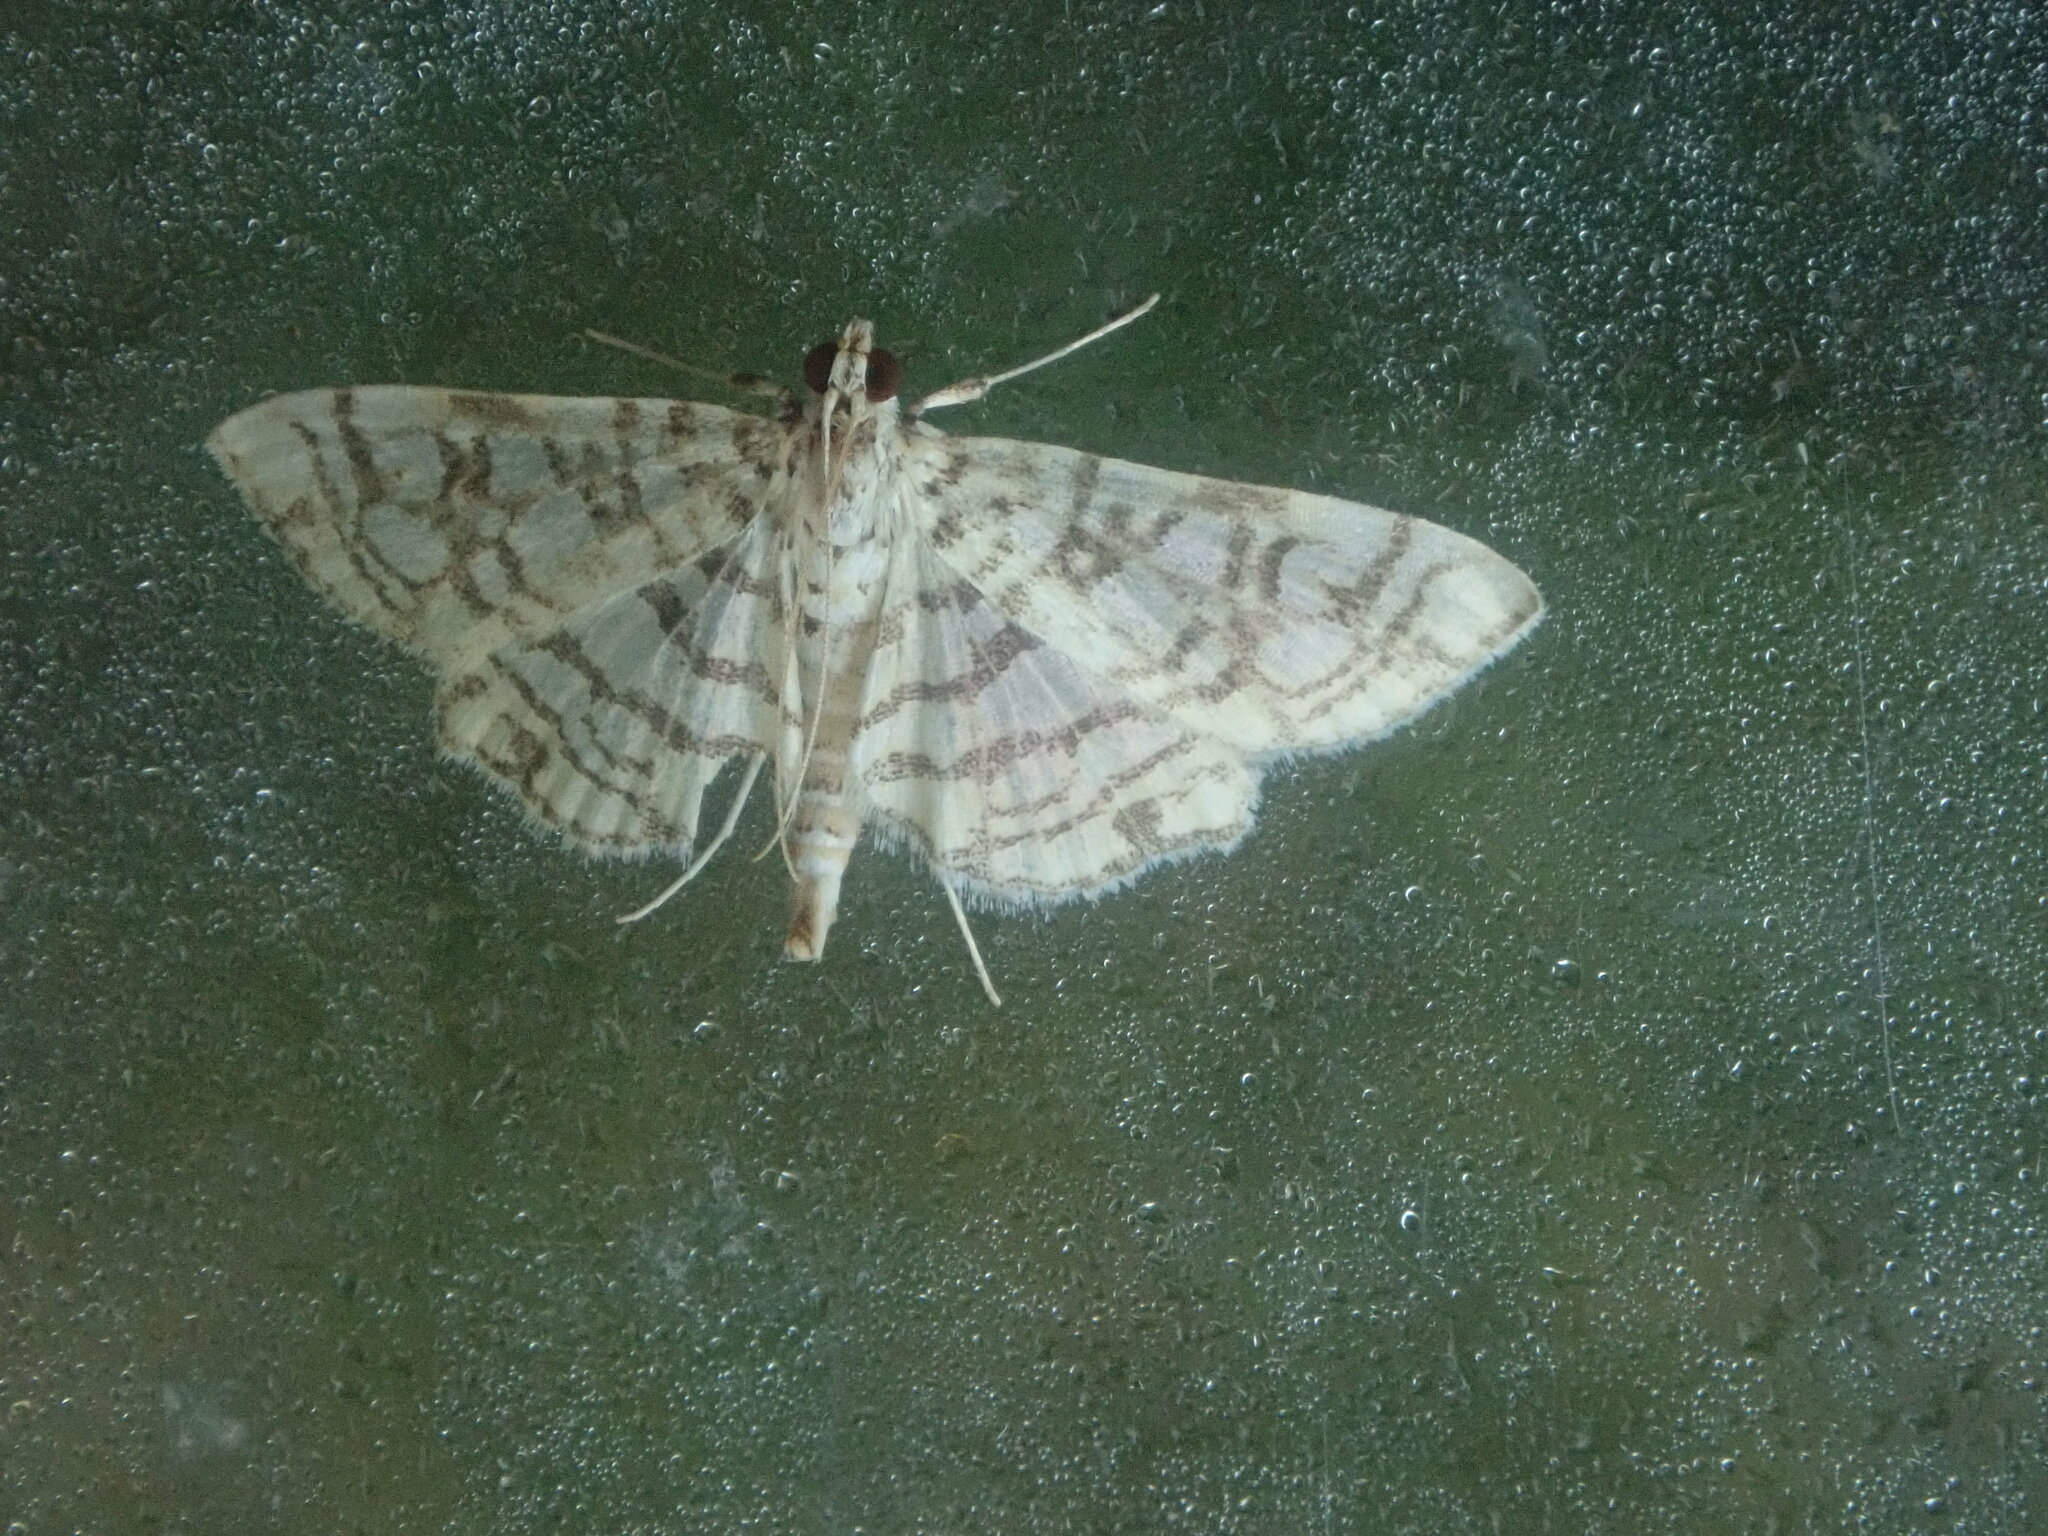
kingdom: Animalia
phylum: Arthropoda
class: Insecta
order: Lepidoptera
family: Crambidae
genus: Lygropia
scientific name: Lygropia rivulalis
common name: Bog lygropia moth
